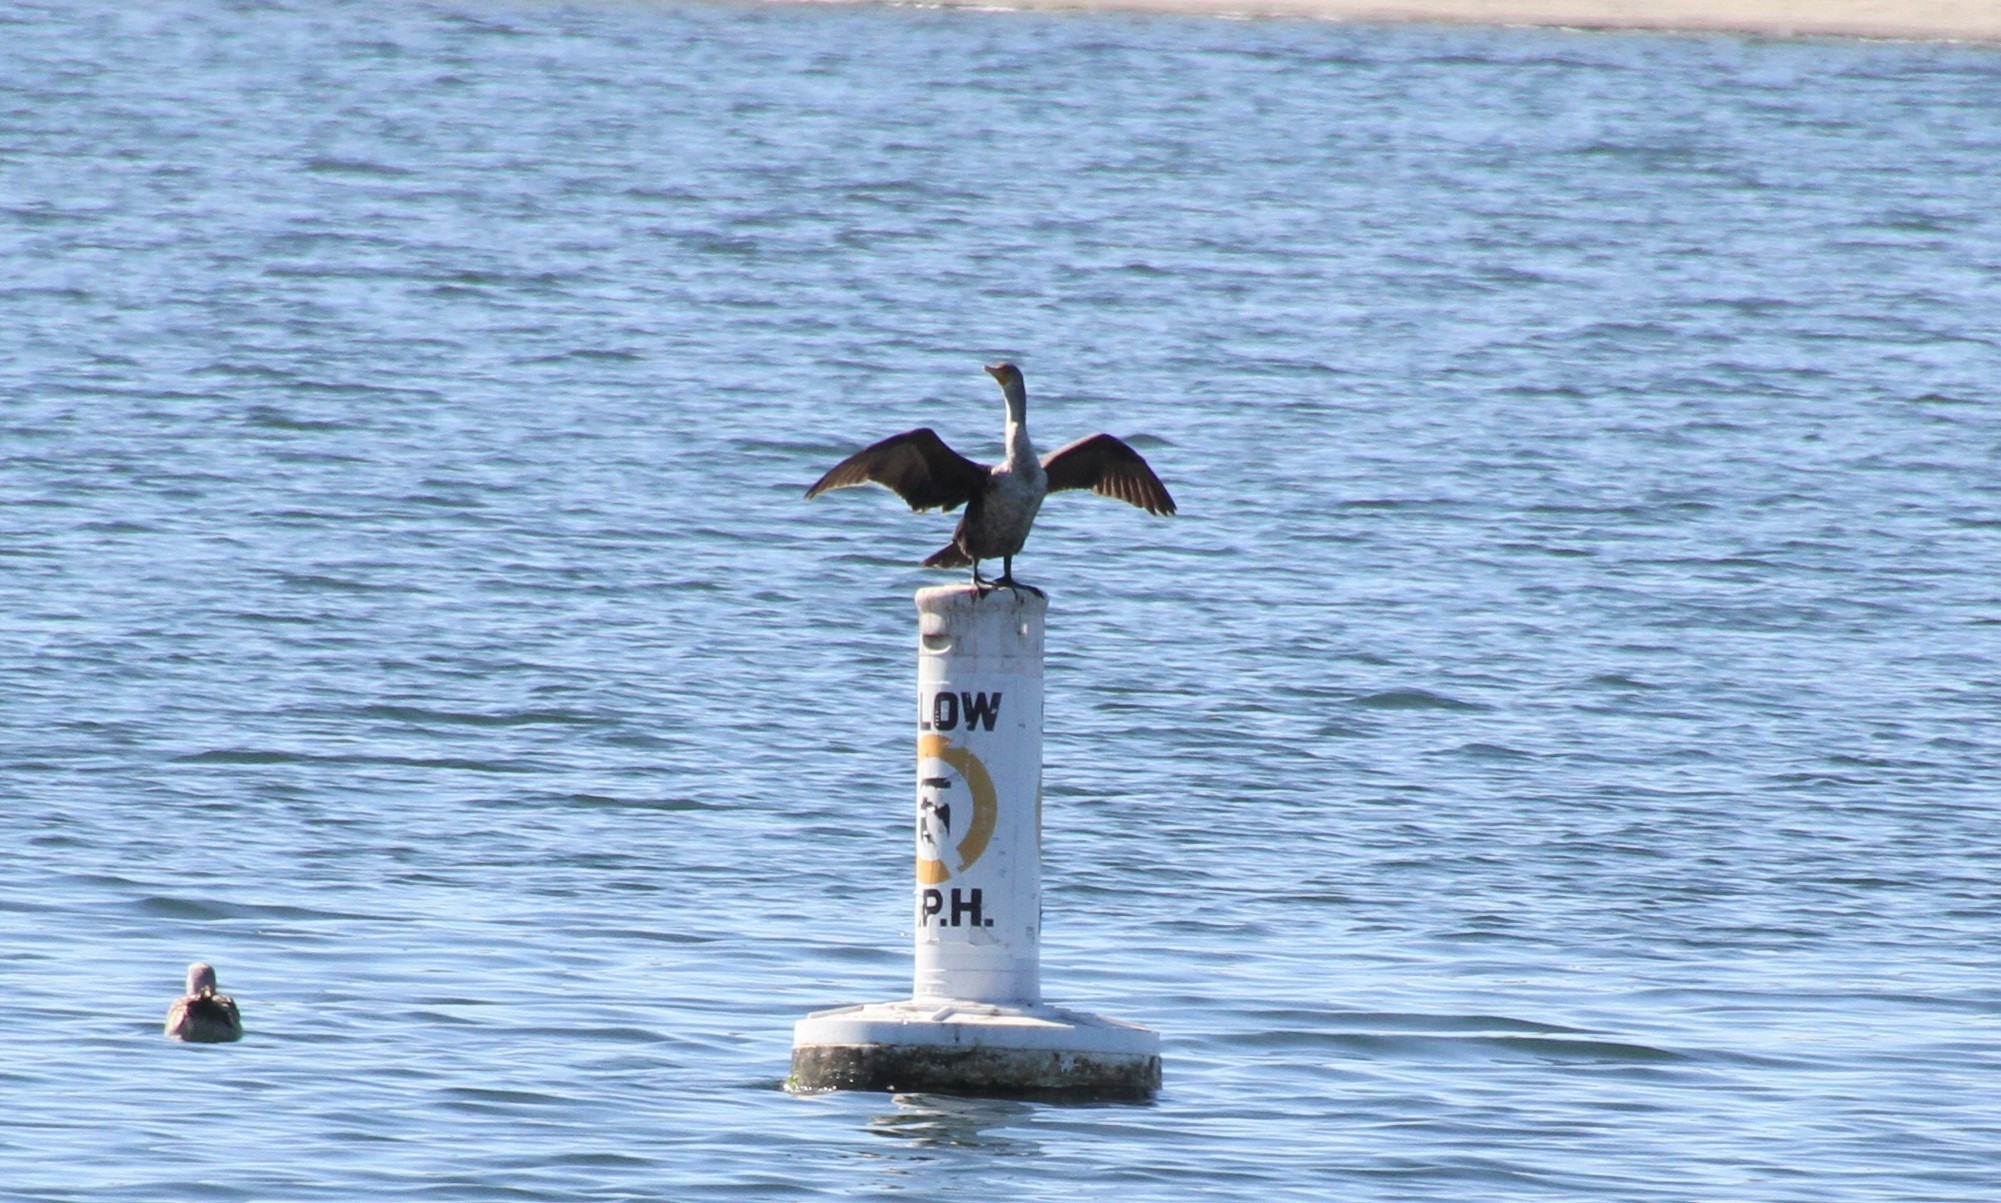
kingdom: Animalia
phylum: Chordata
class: Aves
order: Suliformes
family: Phalacrocoracidae
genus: Phalacrocorax
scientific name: Phalacrocorax auritus
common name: Double-crested cormorant
